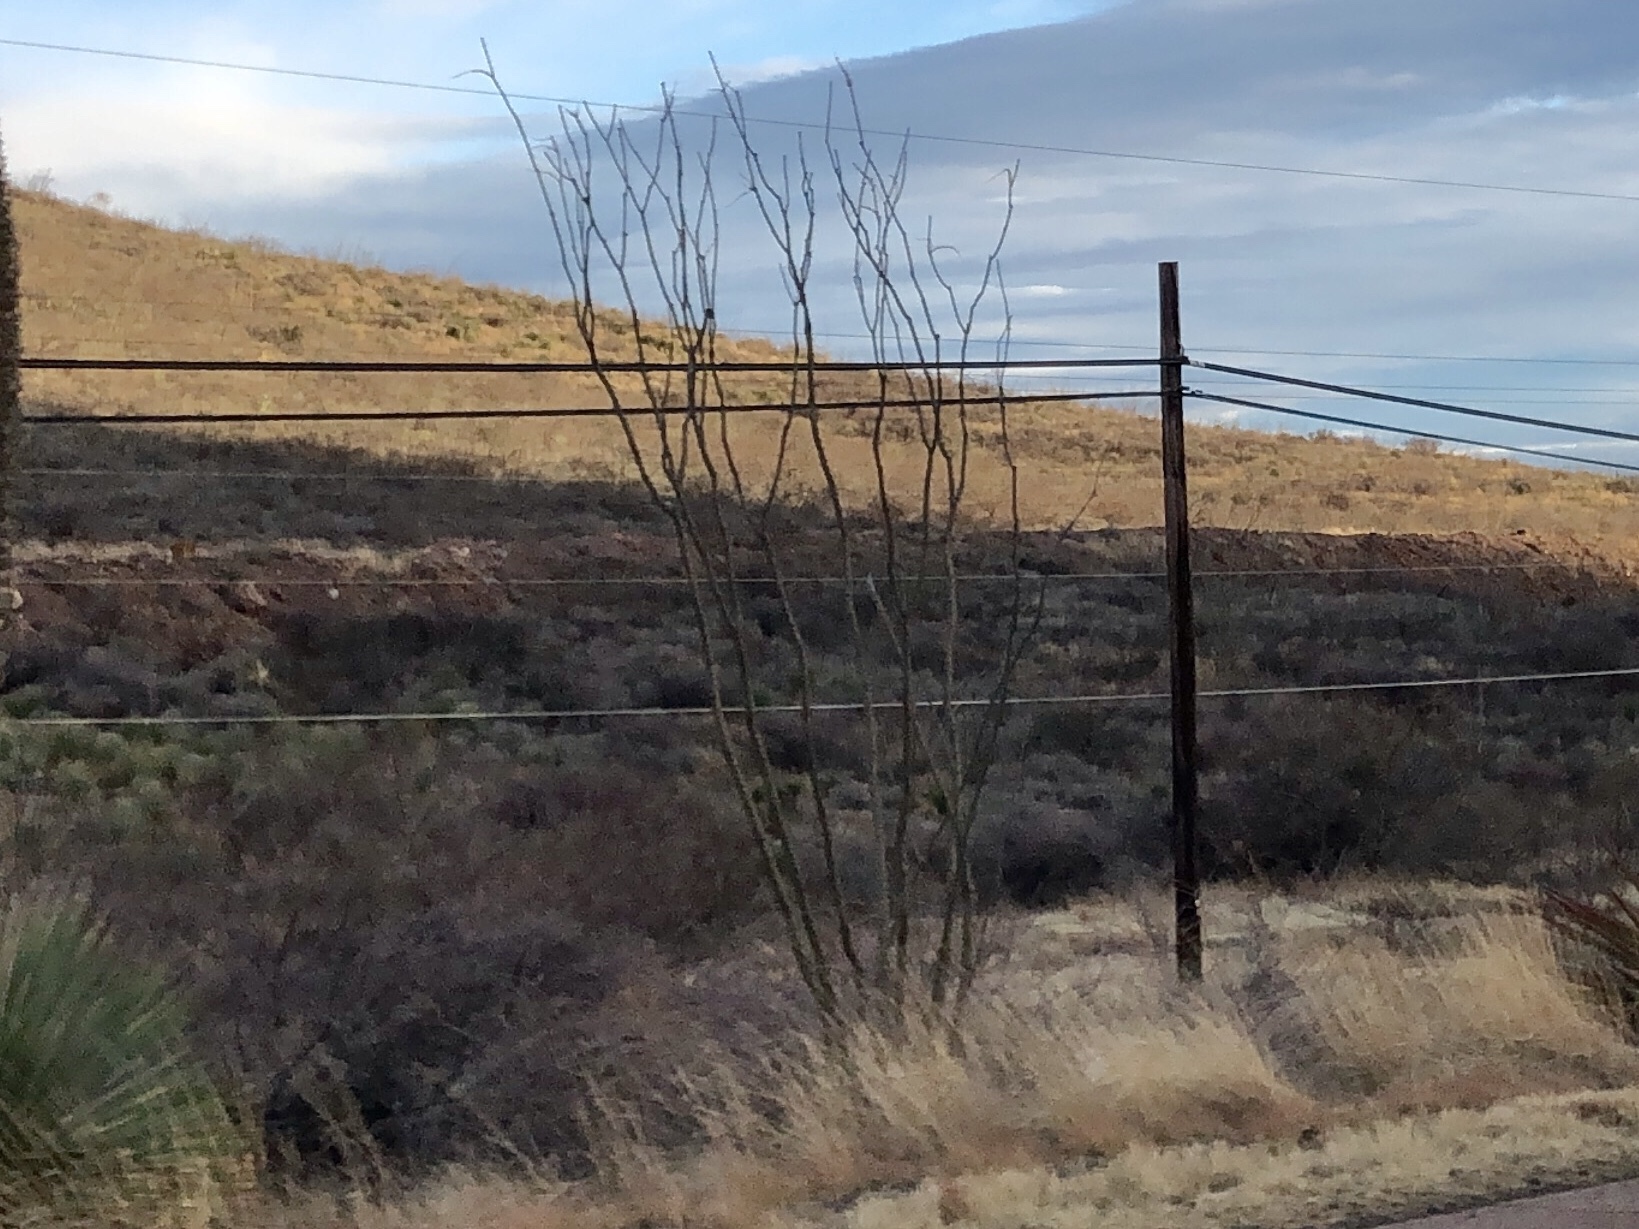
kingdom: Plantae
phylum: Tracheophyta
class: Magnoliopsida
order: Ericales
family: Fouquieriaceae
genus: Fouquieria
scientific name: Fouquieria splendens
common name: Vine-cactus
